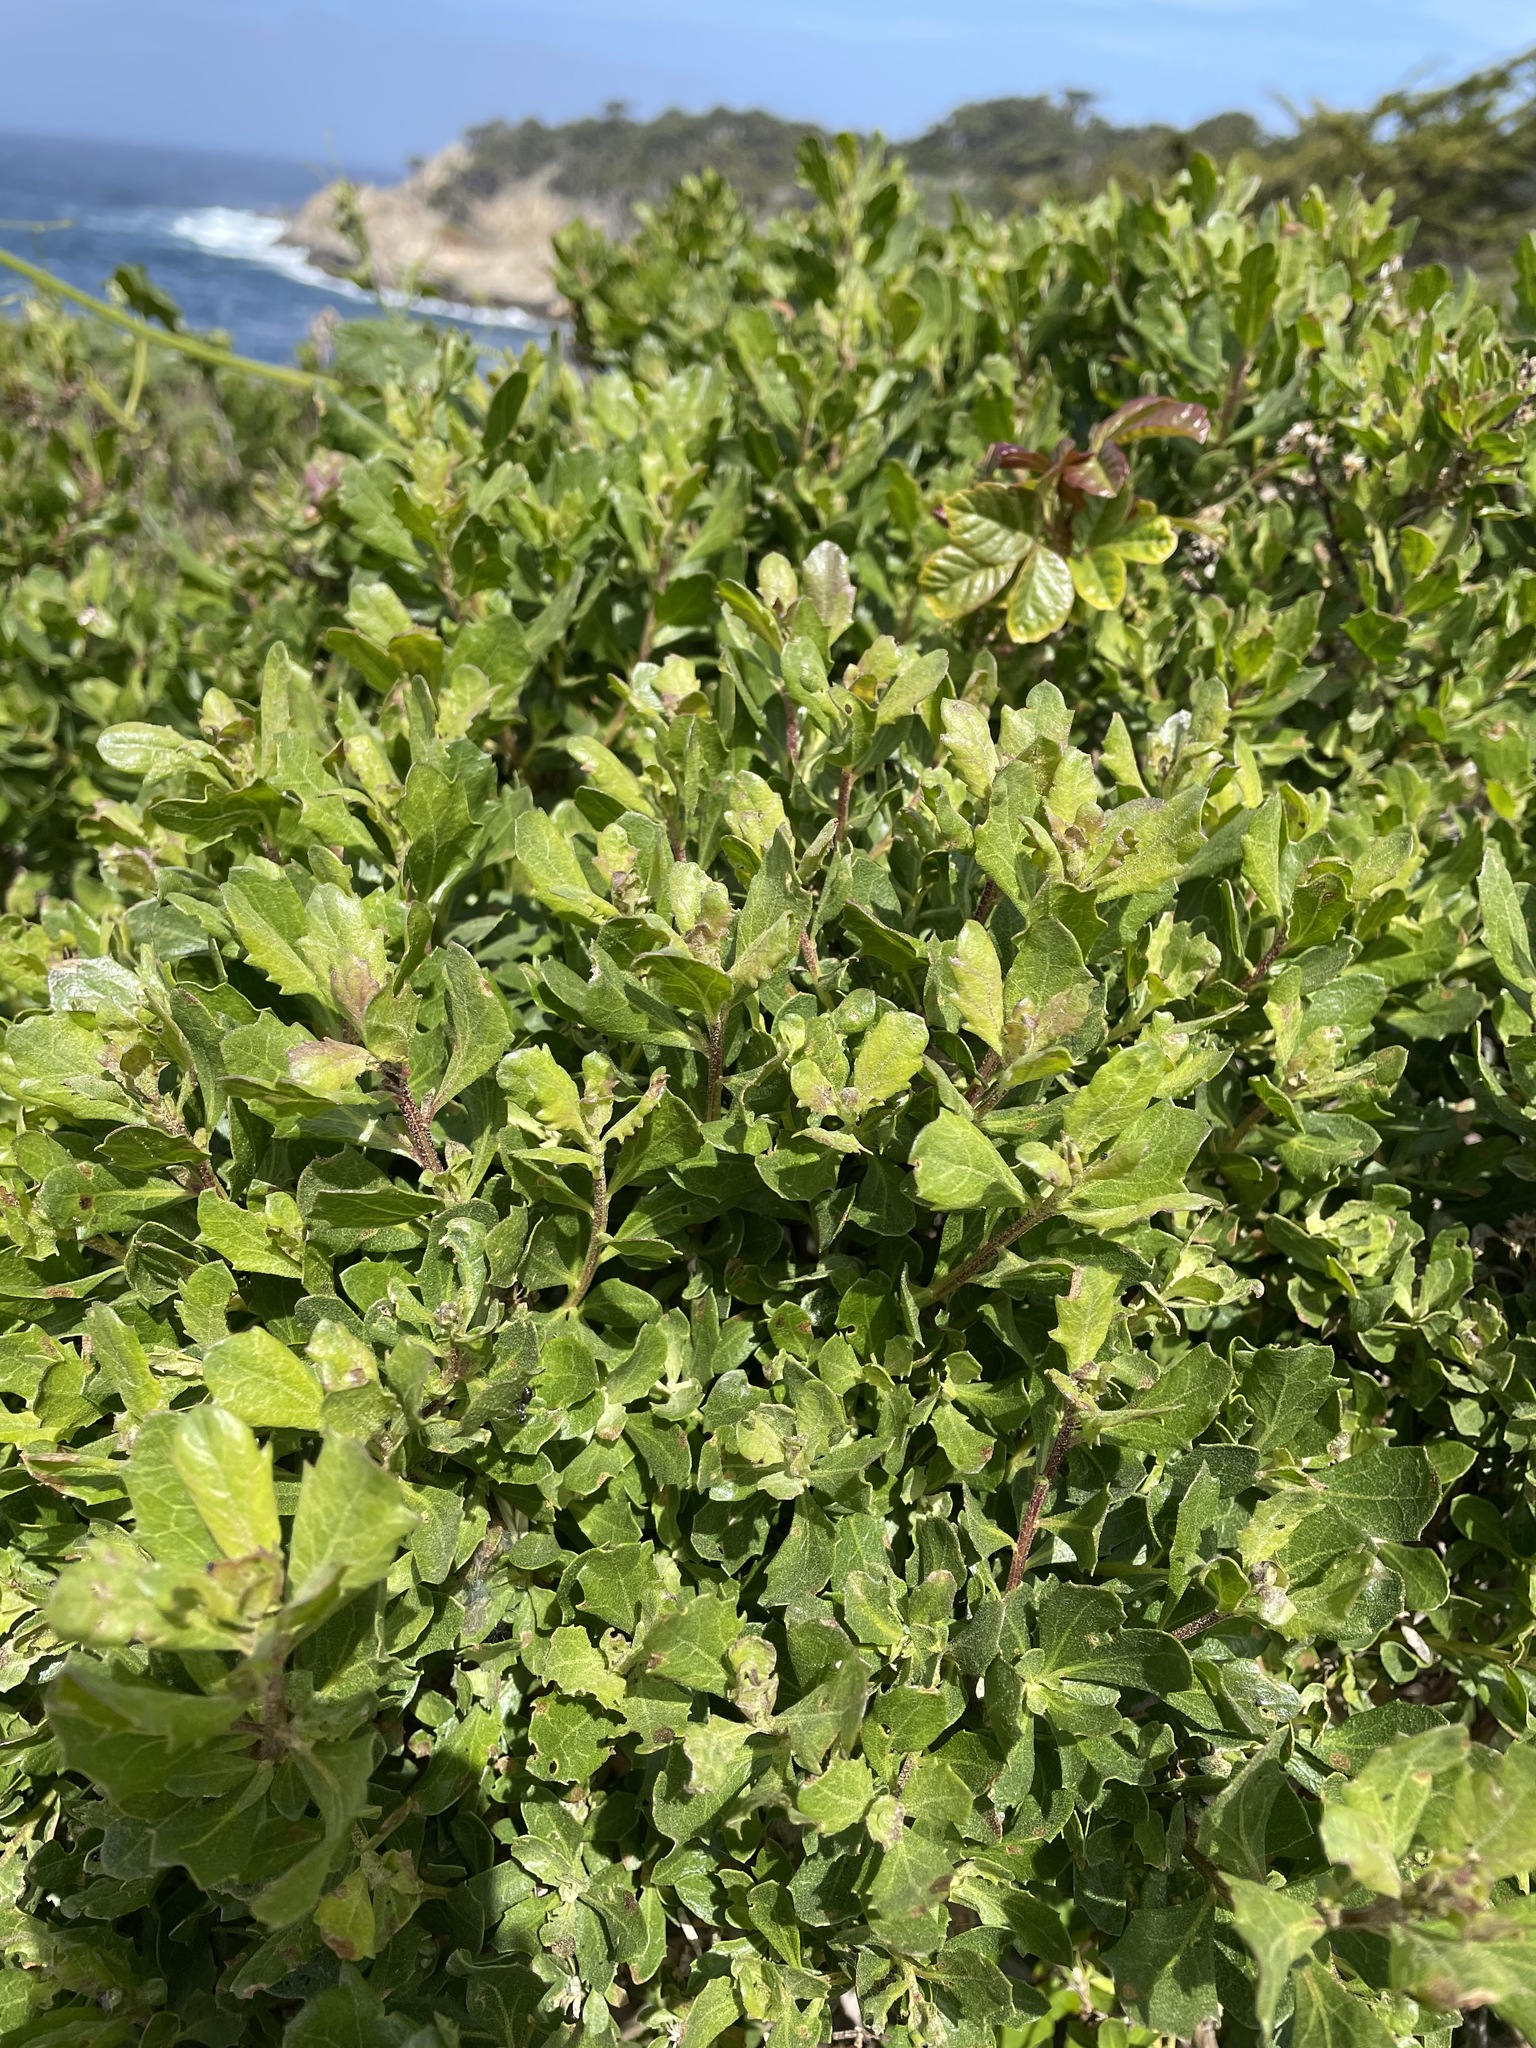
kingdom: Plantae
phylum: Tracheophyta
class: Magnoliopsida
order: Asterales
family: Asteraceae
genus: Baccharis
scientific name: Baccharis pilularis
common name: Coyotebrush
